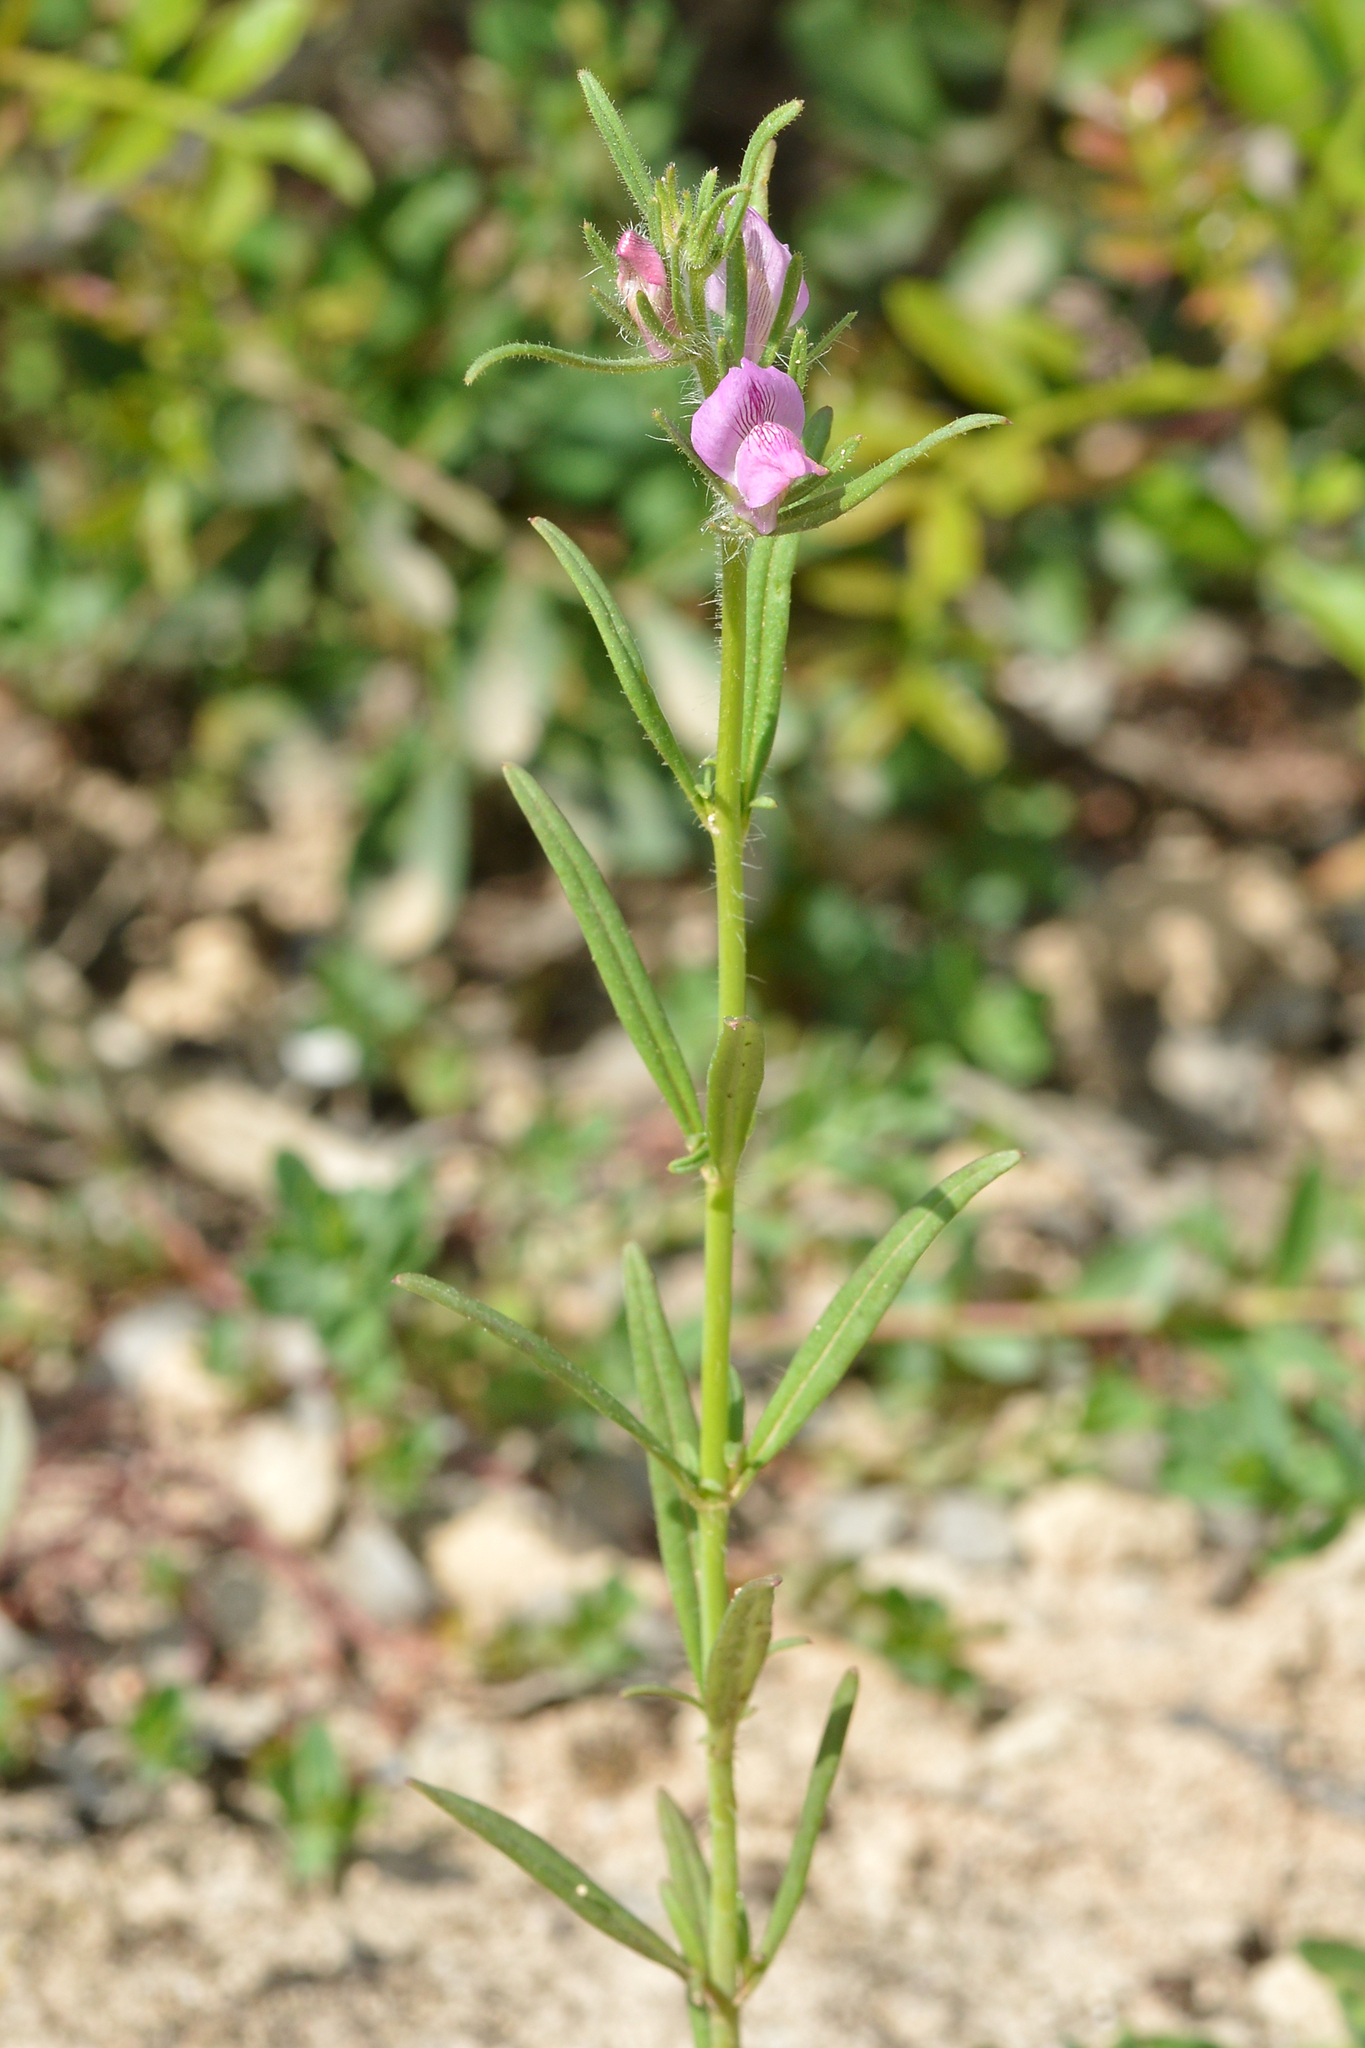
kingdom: Plantae
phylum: Tracheophyta
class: Magnoliopsida
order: Lamiales
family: Plantaginaceae
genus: Misopates
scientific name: Misopates orontium
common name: Weasel's-snout
